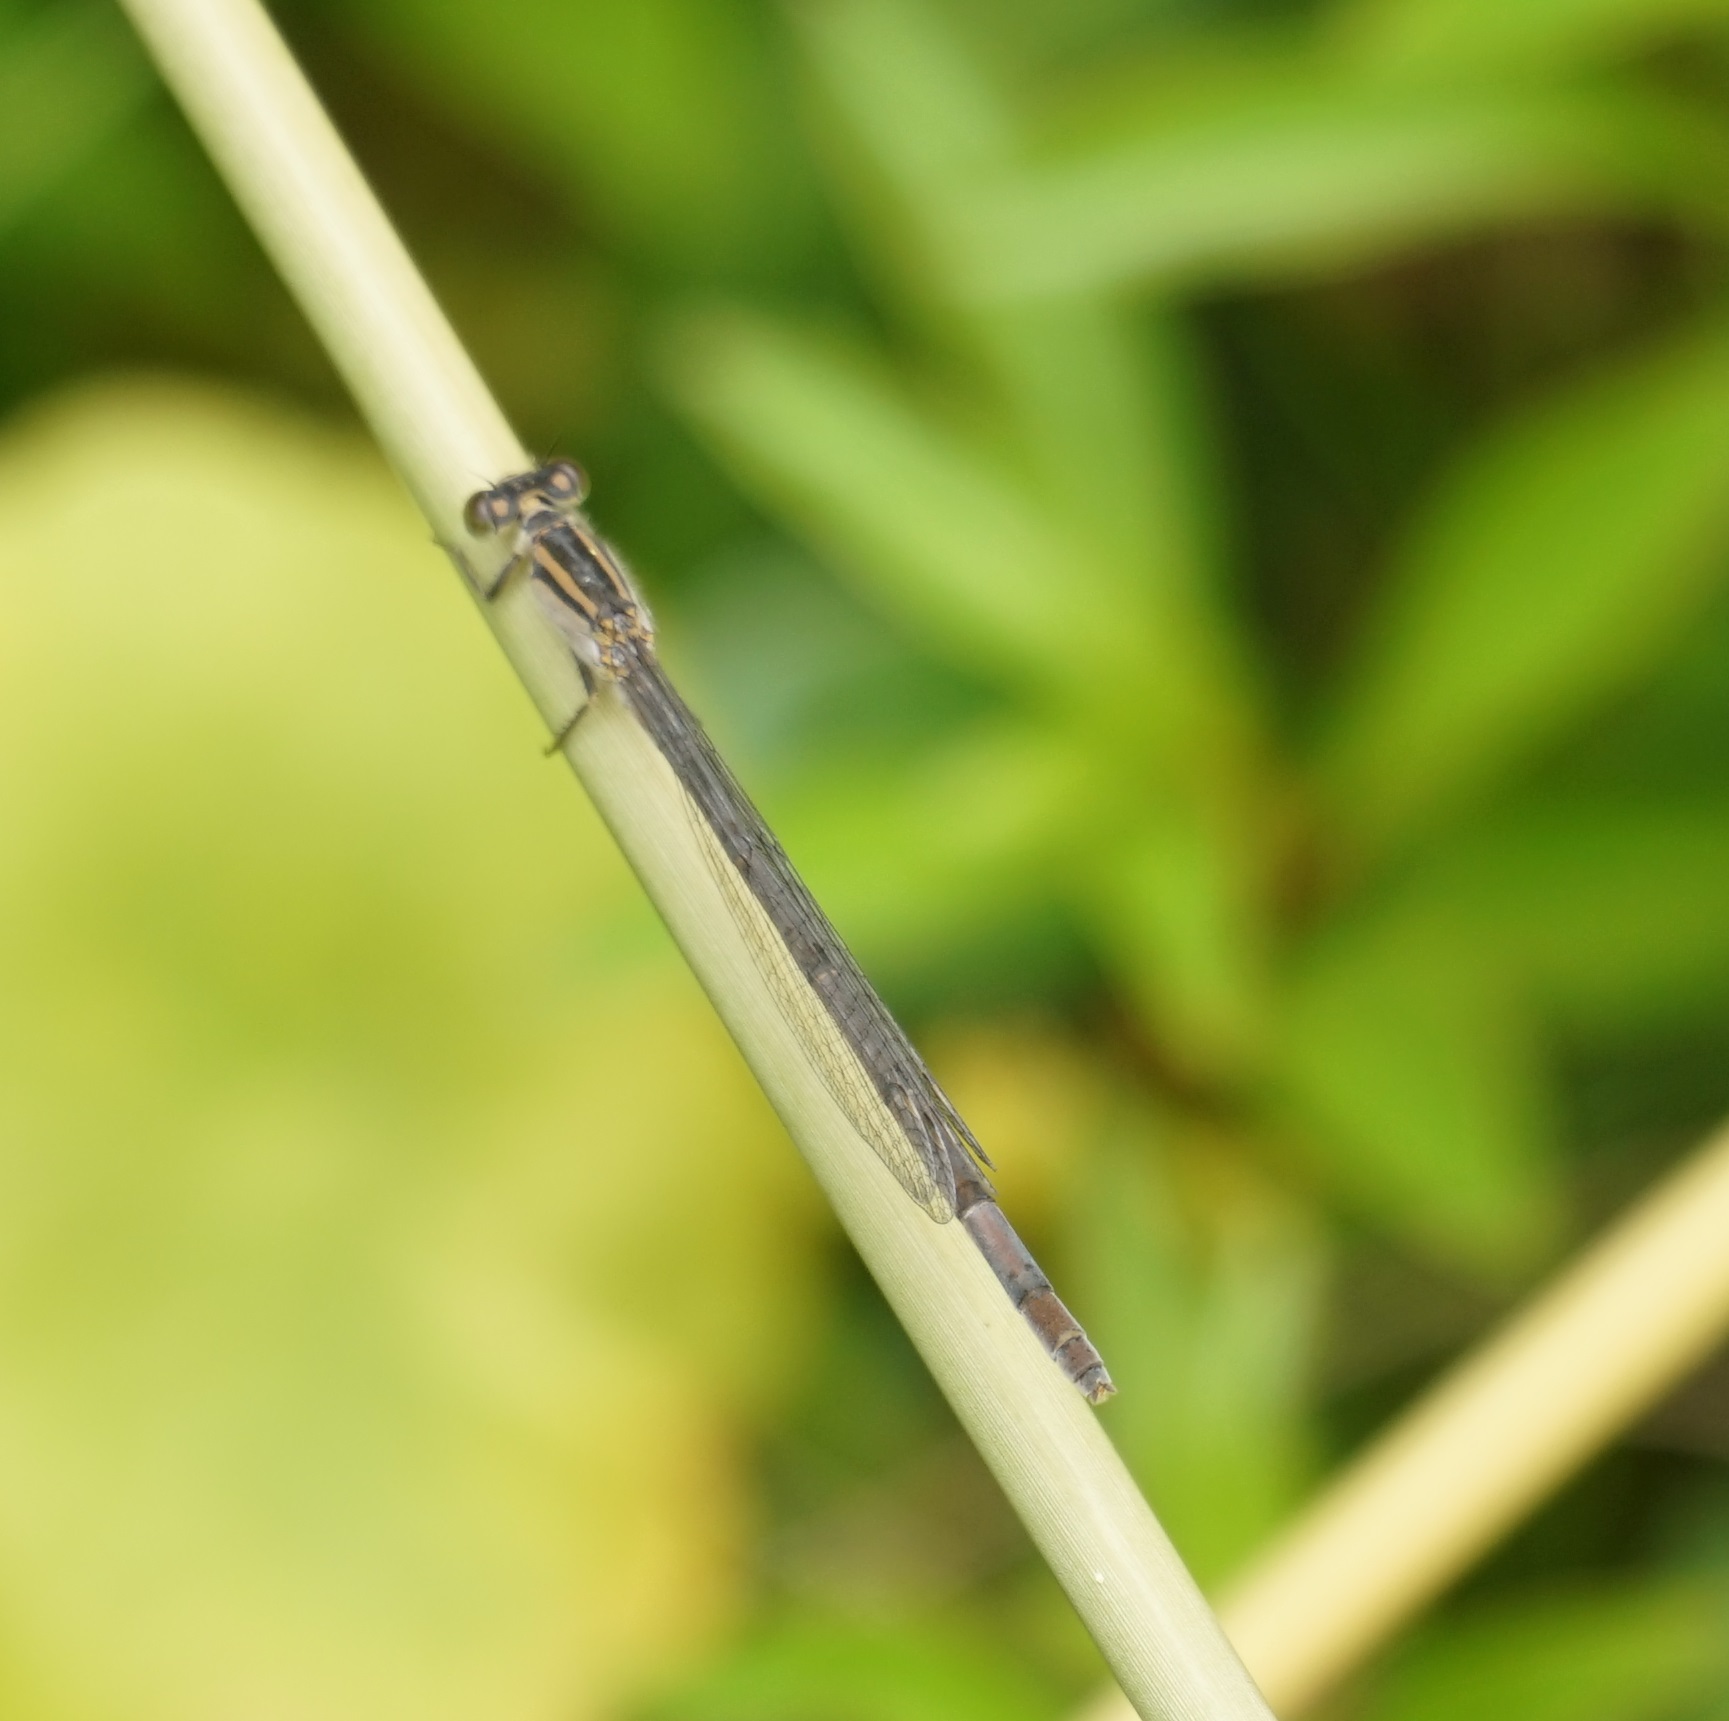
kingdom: Animalia
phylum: Arthropoda
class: Insecta
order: Odonata
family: Coenagrionidae
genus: Ischnura
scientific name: Ischnura heterosticta
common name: Common bluetail
